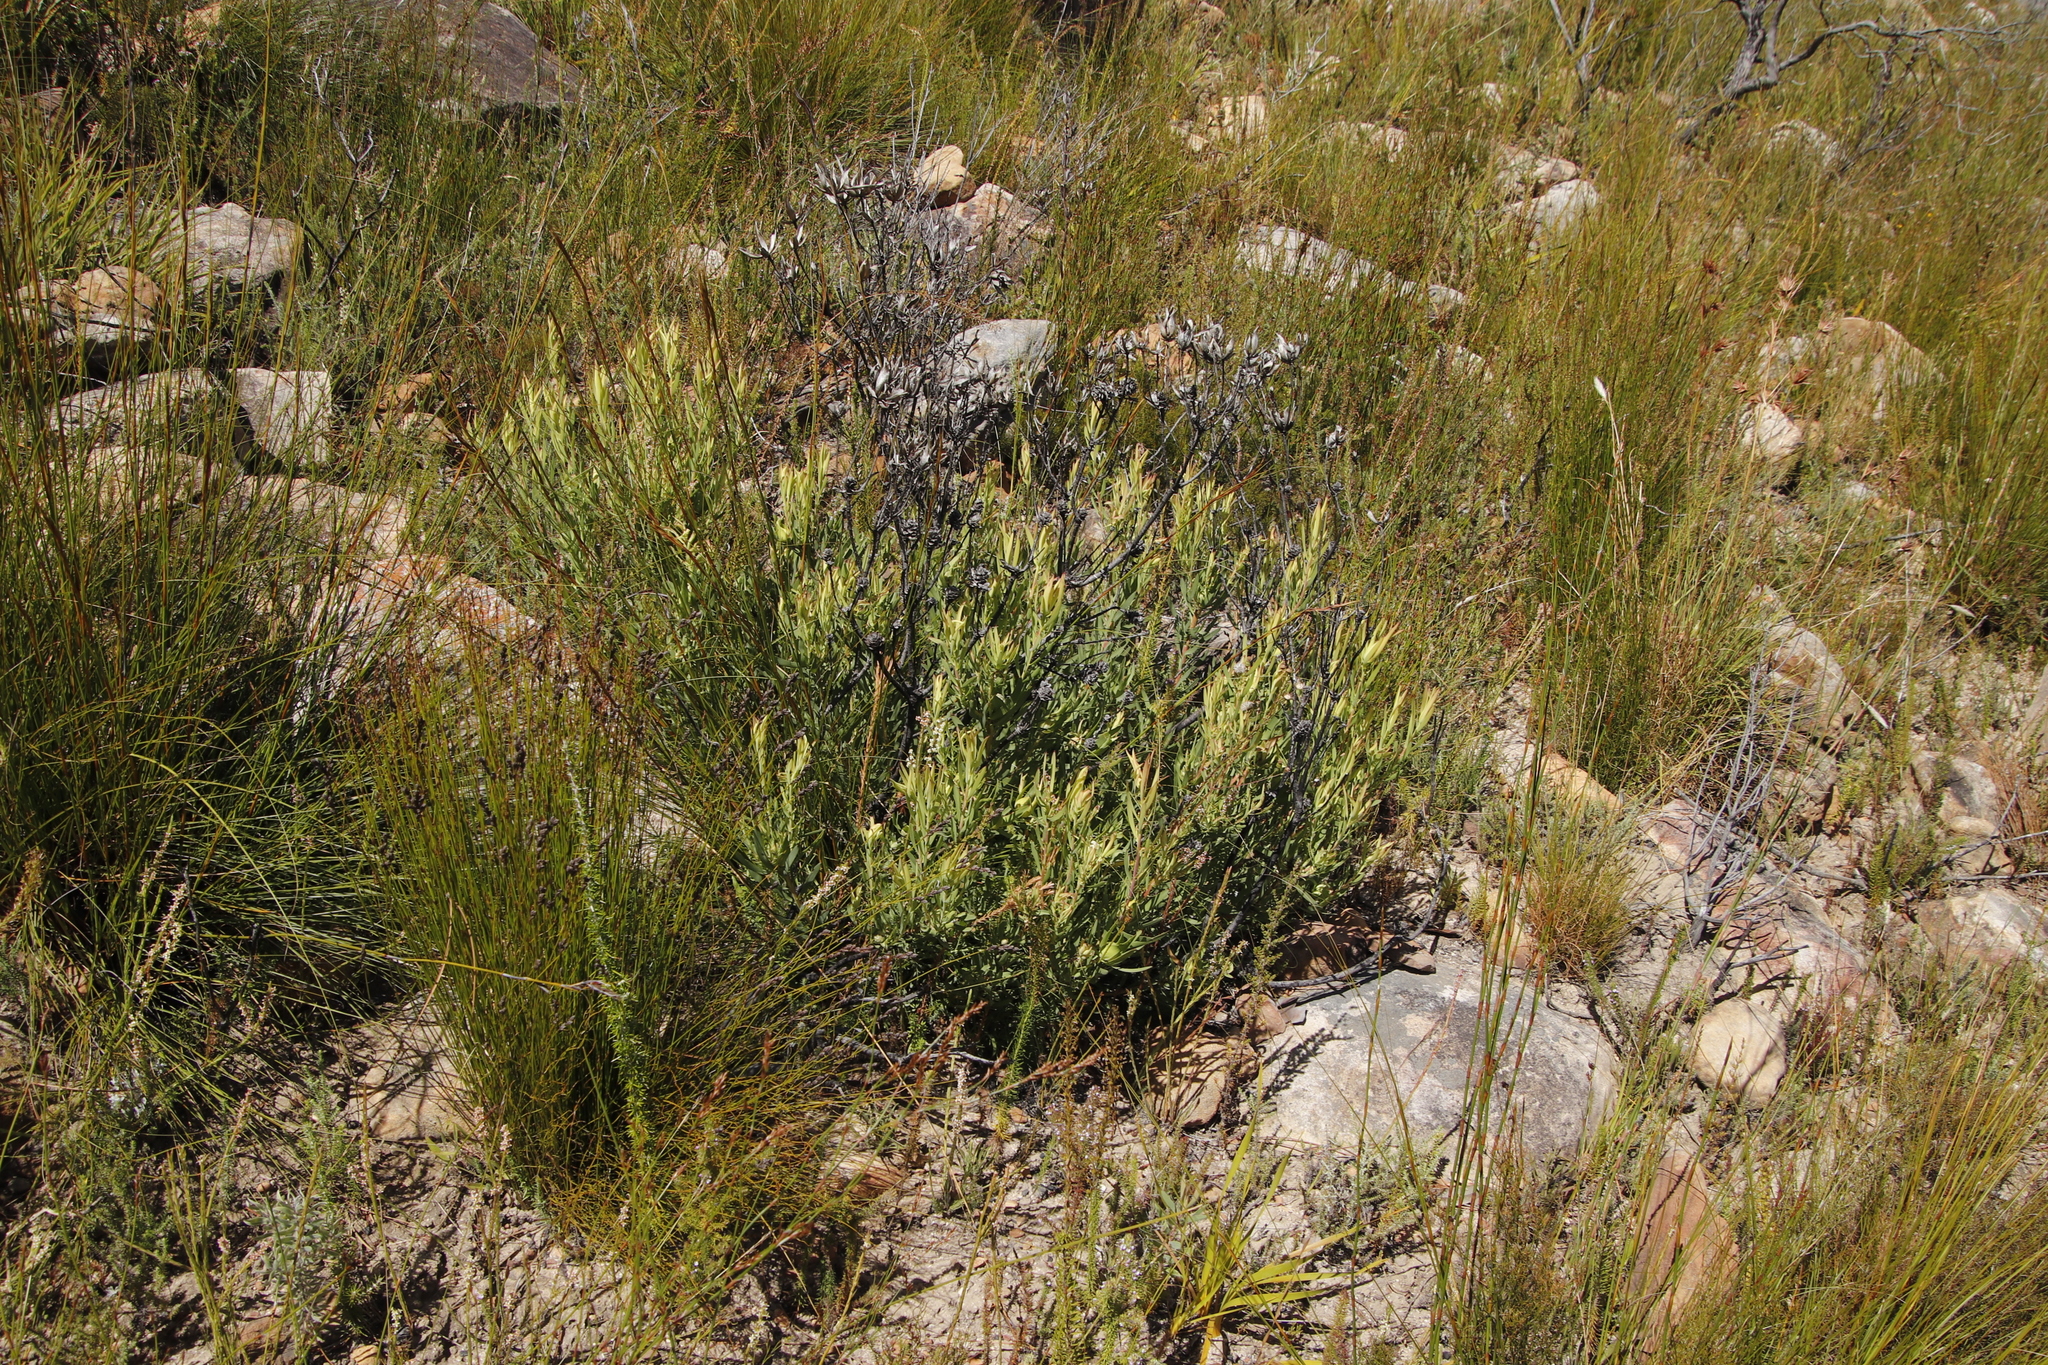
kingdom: Plantae
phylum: Tracheophyta
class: Magnoliopsida
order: Proteales
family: Proteaceae
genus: Leucadendron
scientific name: Leucadendron salignum
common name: Common sunshine conebush
